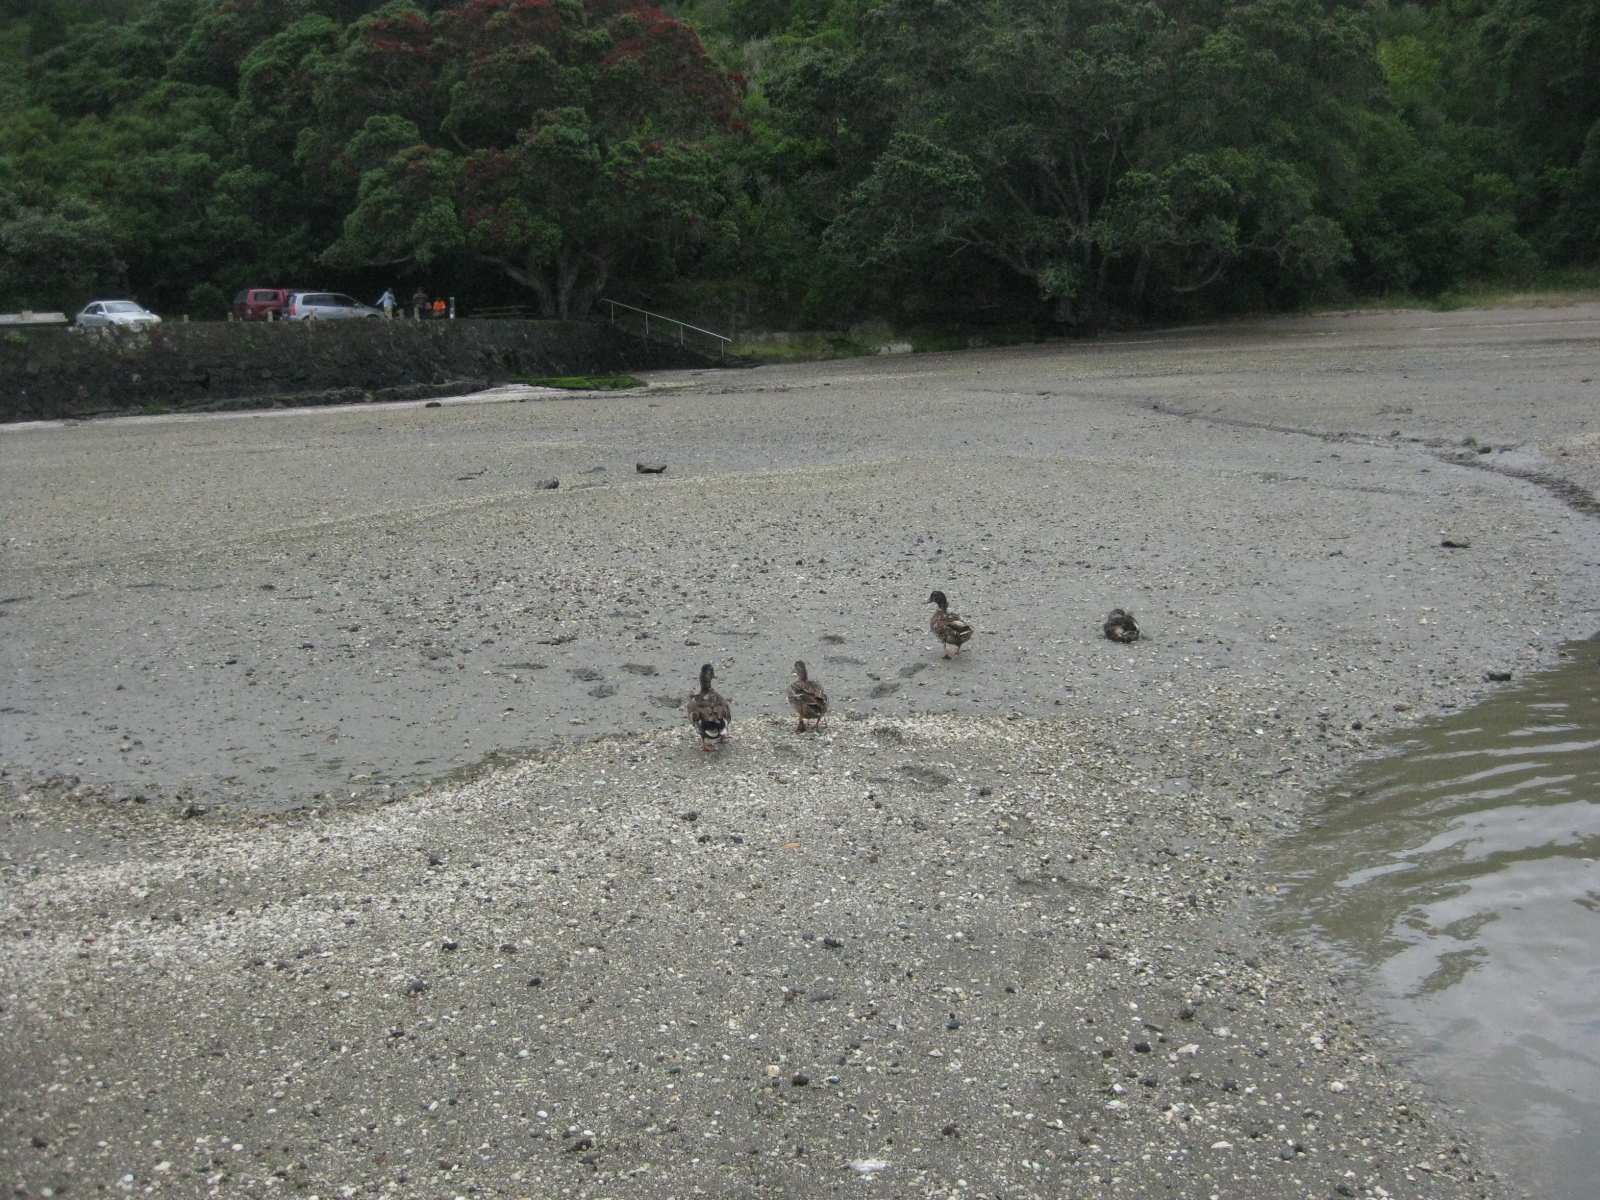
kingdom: Animalia
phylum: Chordata
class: Aves
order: Anseriformes
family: Anatidae
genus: Anas
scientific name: Anas
